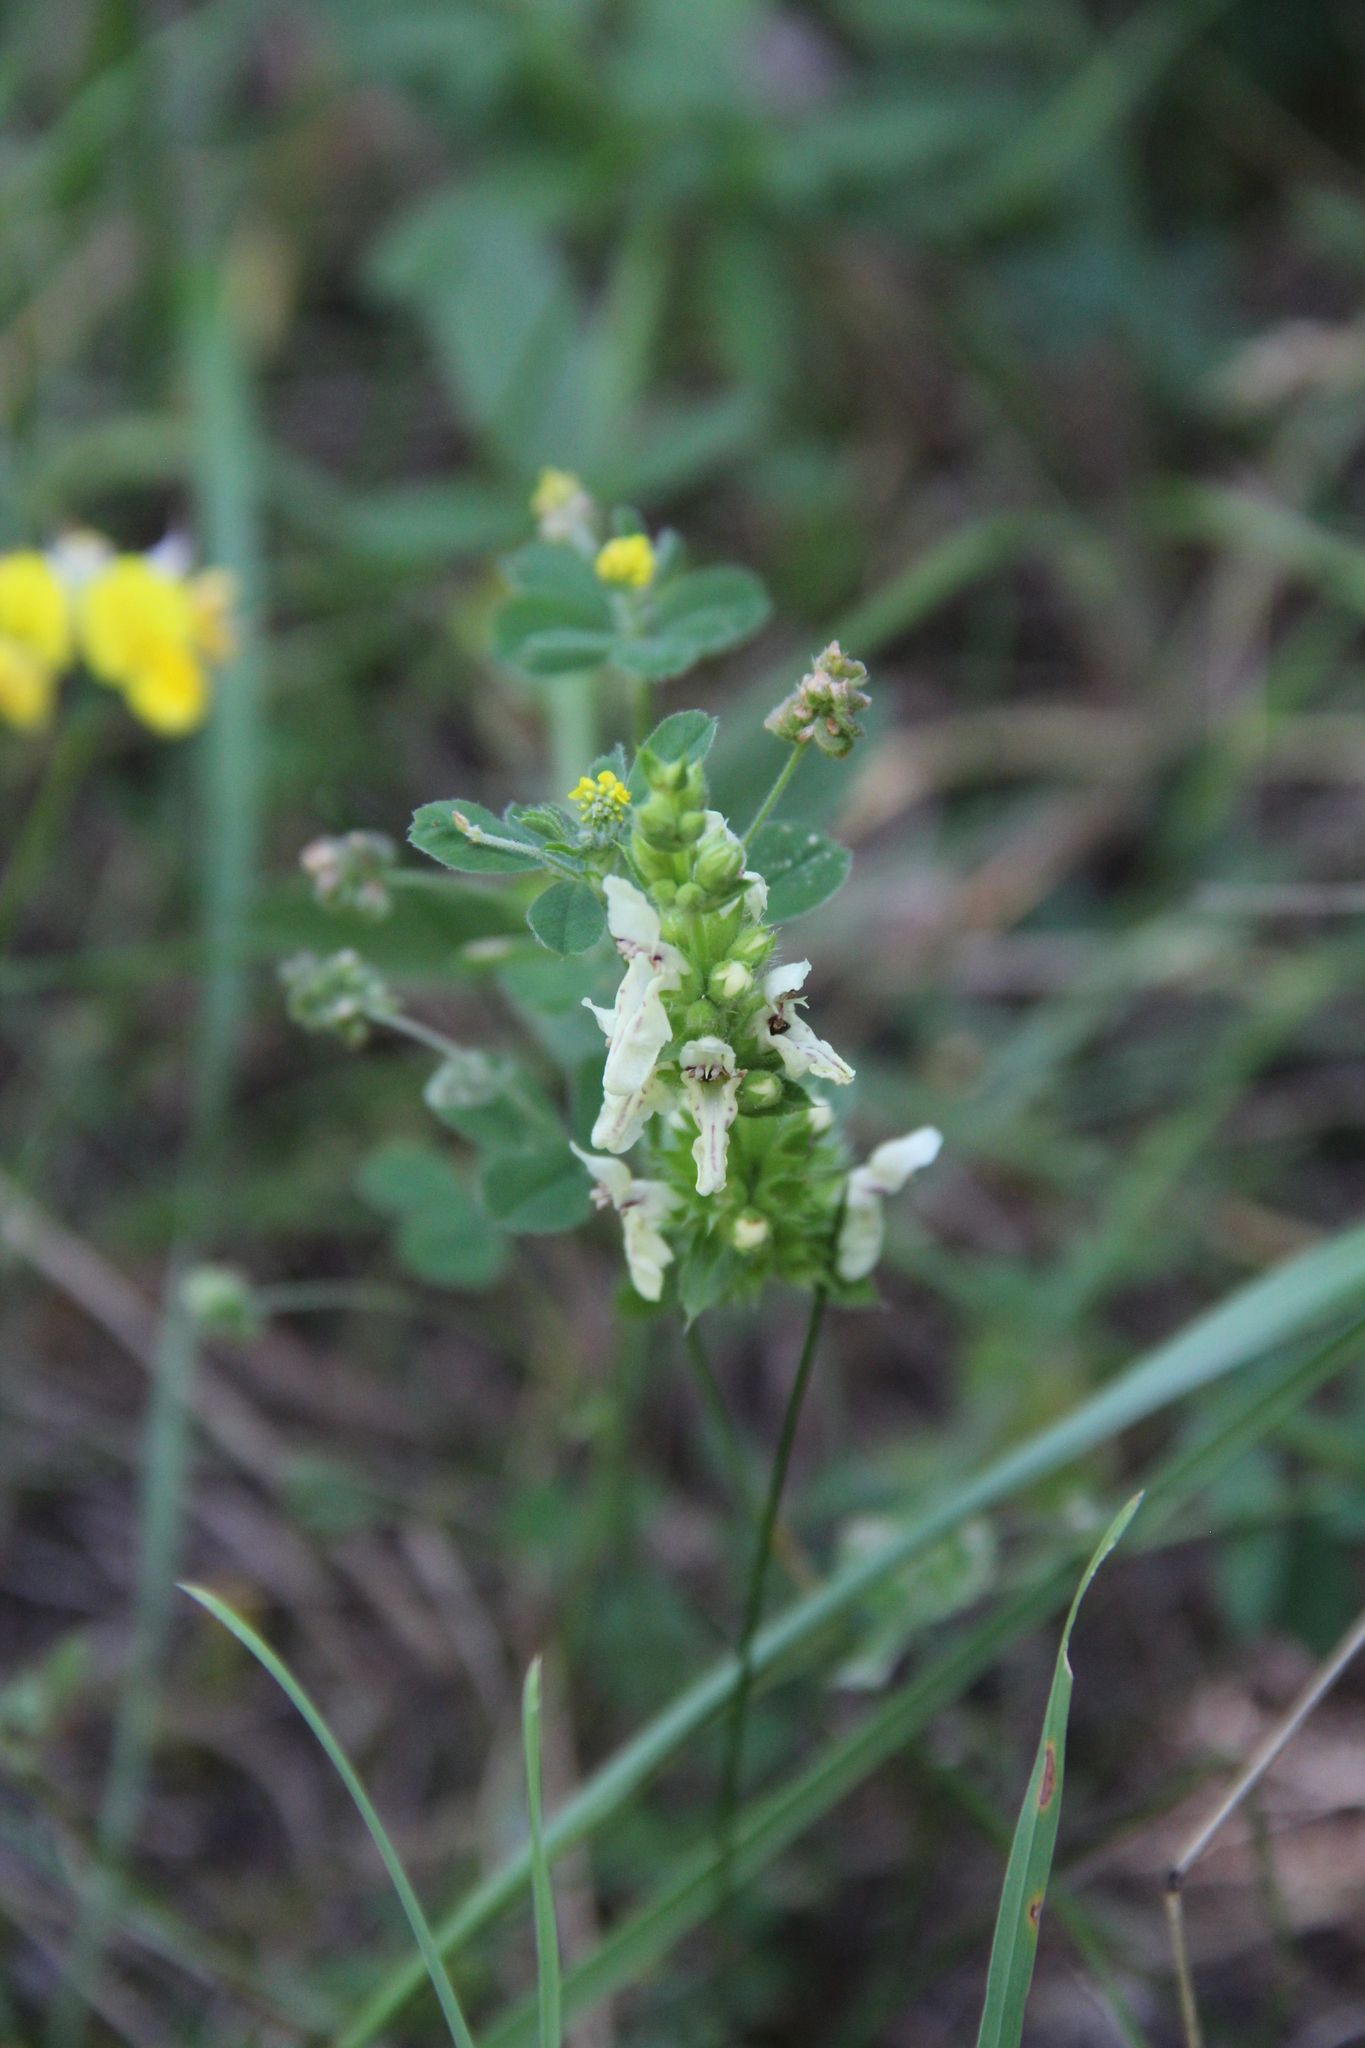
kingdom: Plantae
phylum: Tracheophyta
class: Magnoliopsida
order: Lamiales
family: Lamiaceae
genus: Stachys
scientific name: Stachys recta
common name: Perennial yellow-woundwort
